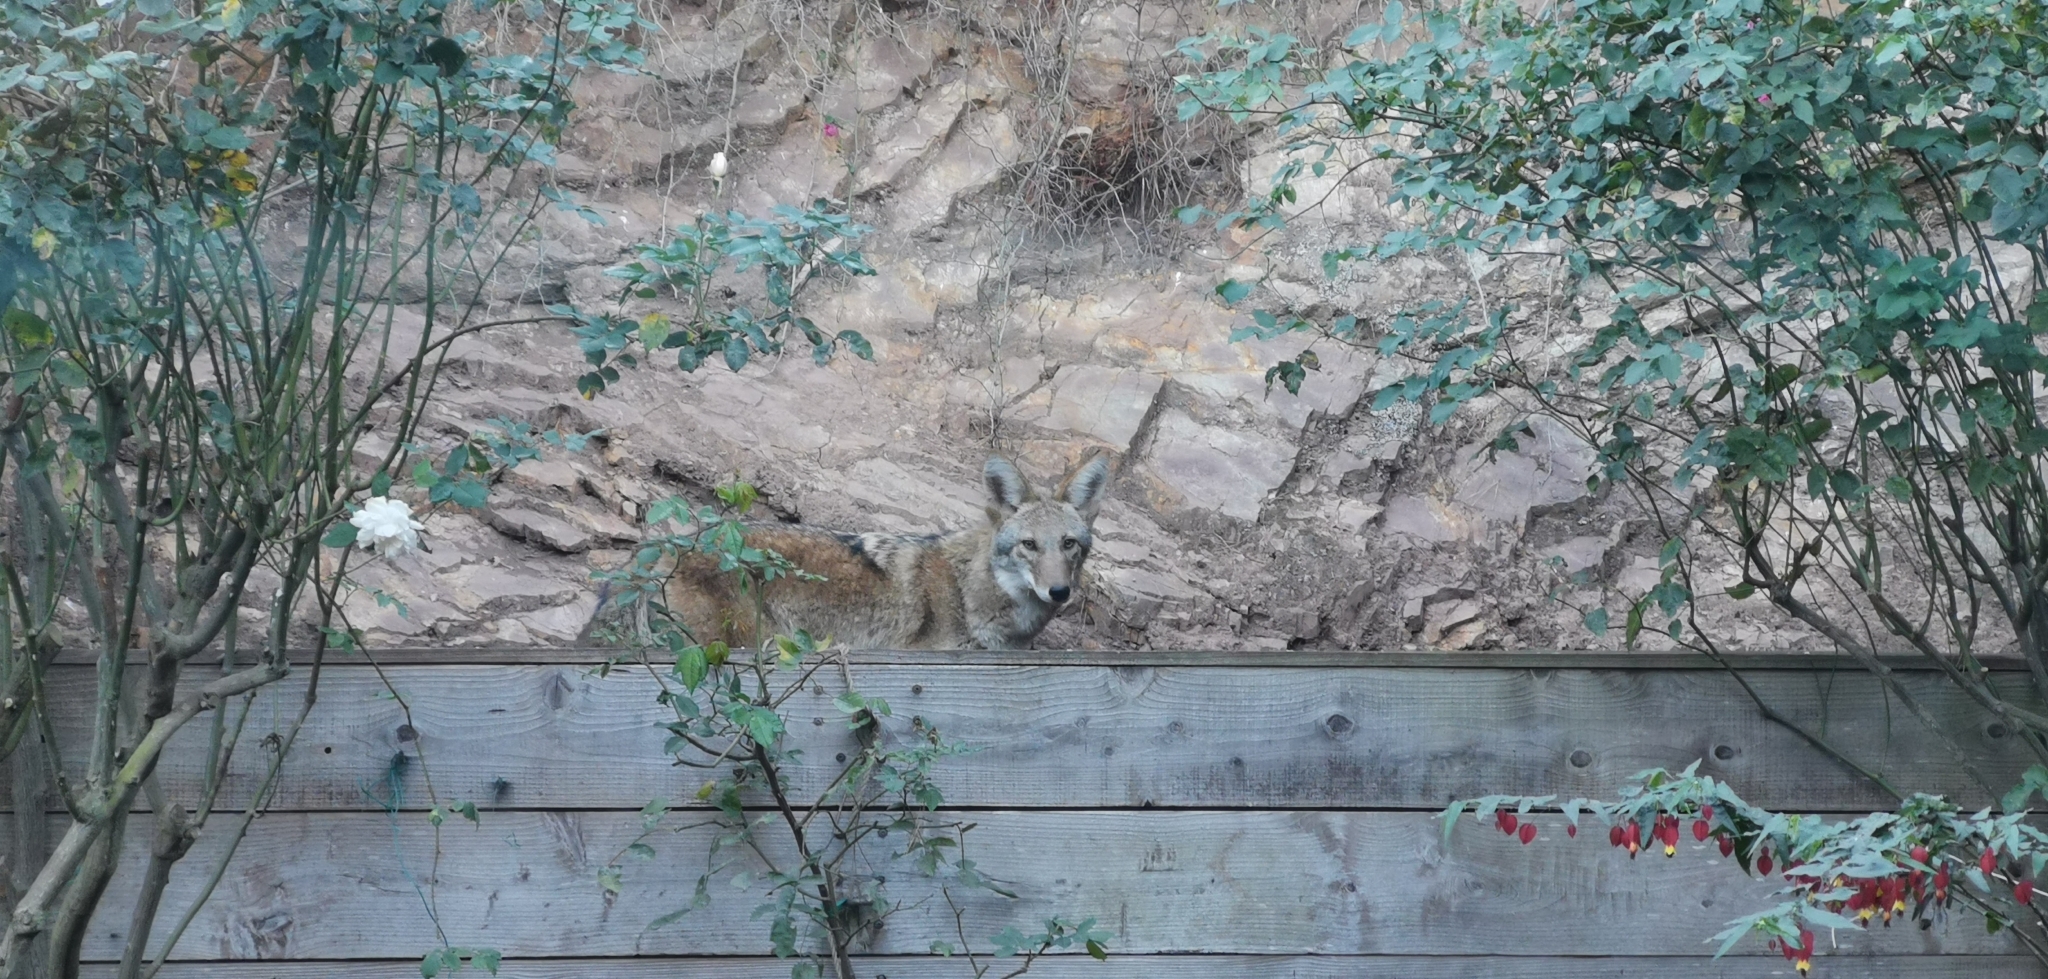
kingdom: Animalia
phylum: Chordata
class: Mammalia
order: Carnivora
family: Canidae
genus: Canis
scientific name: Canis latrans
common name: Coyote
